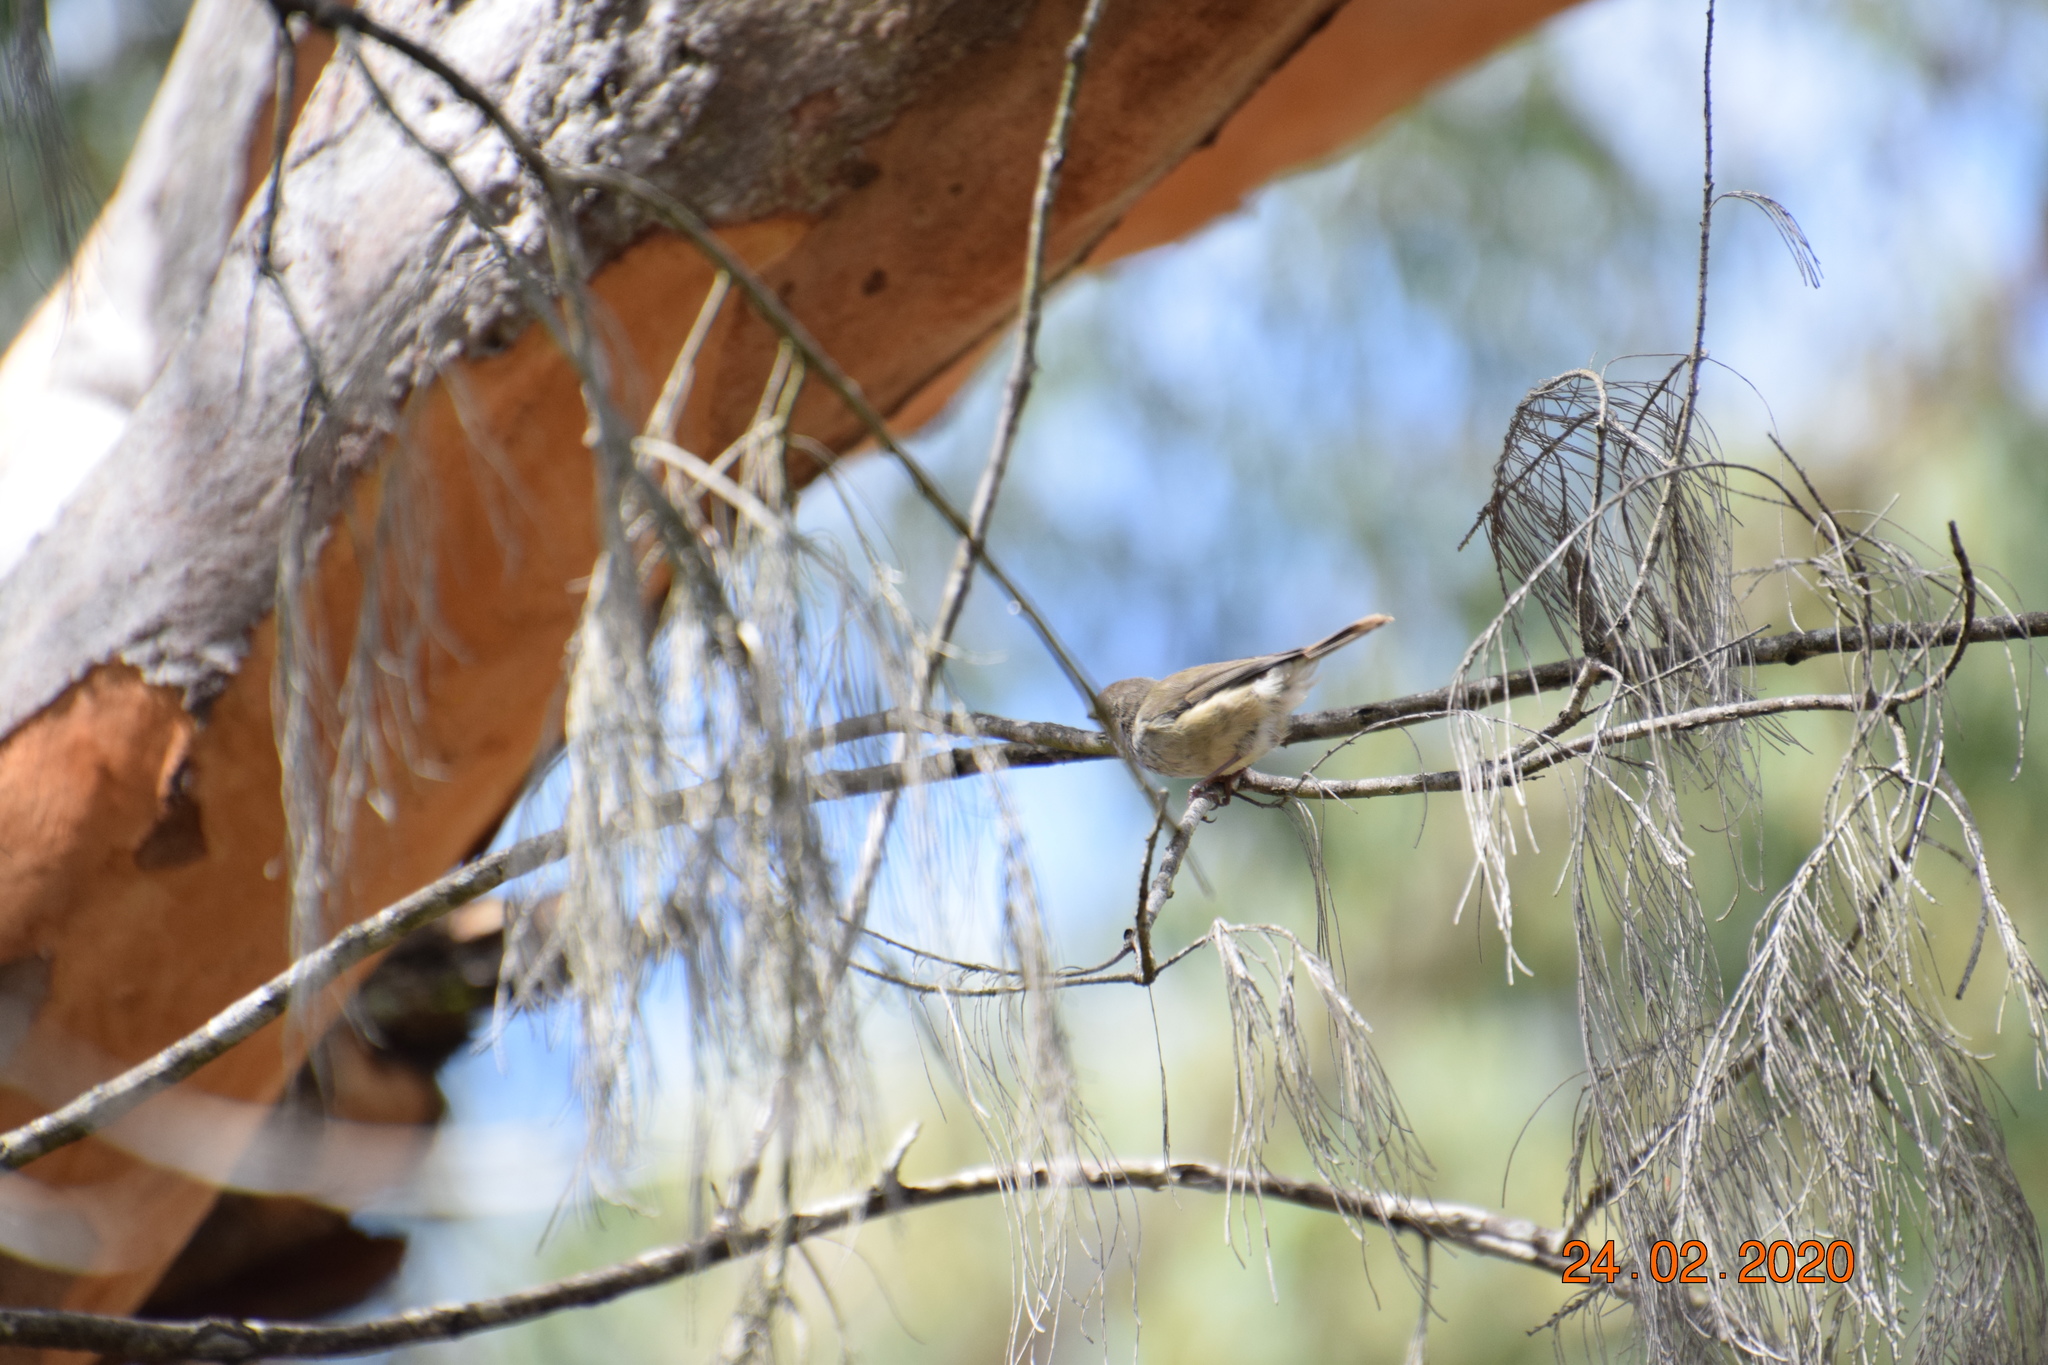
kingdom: Animalia
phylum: Chordata
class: Aves
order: Passeriformes
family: Acanthizidae
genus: Acanthiza
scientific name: Acanthiza pusilla
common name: Brown thornbill
